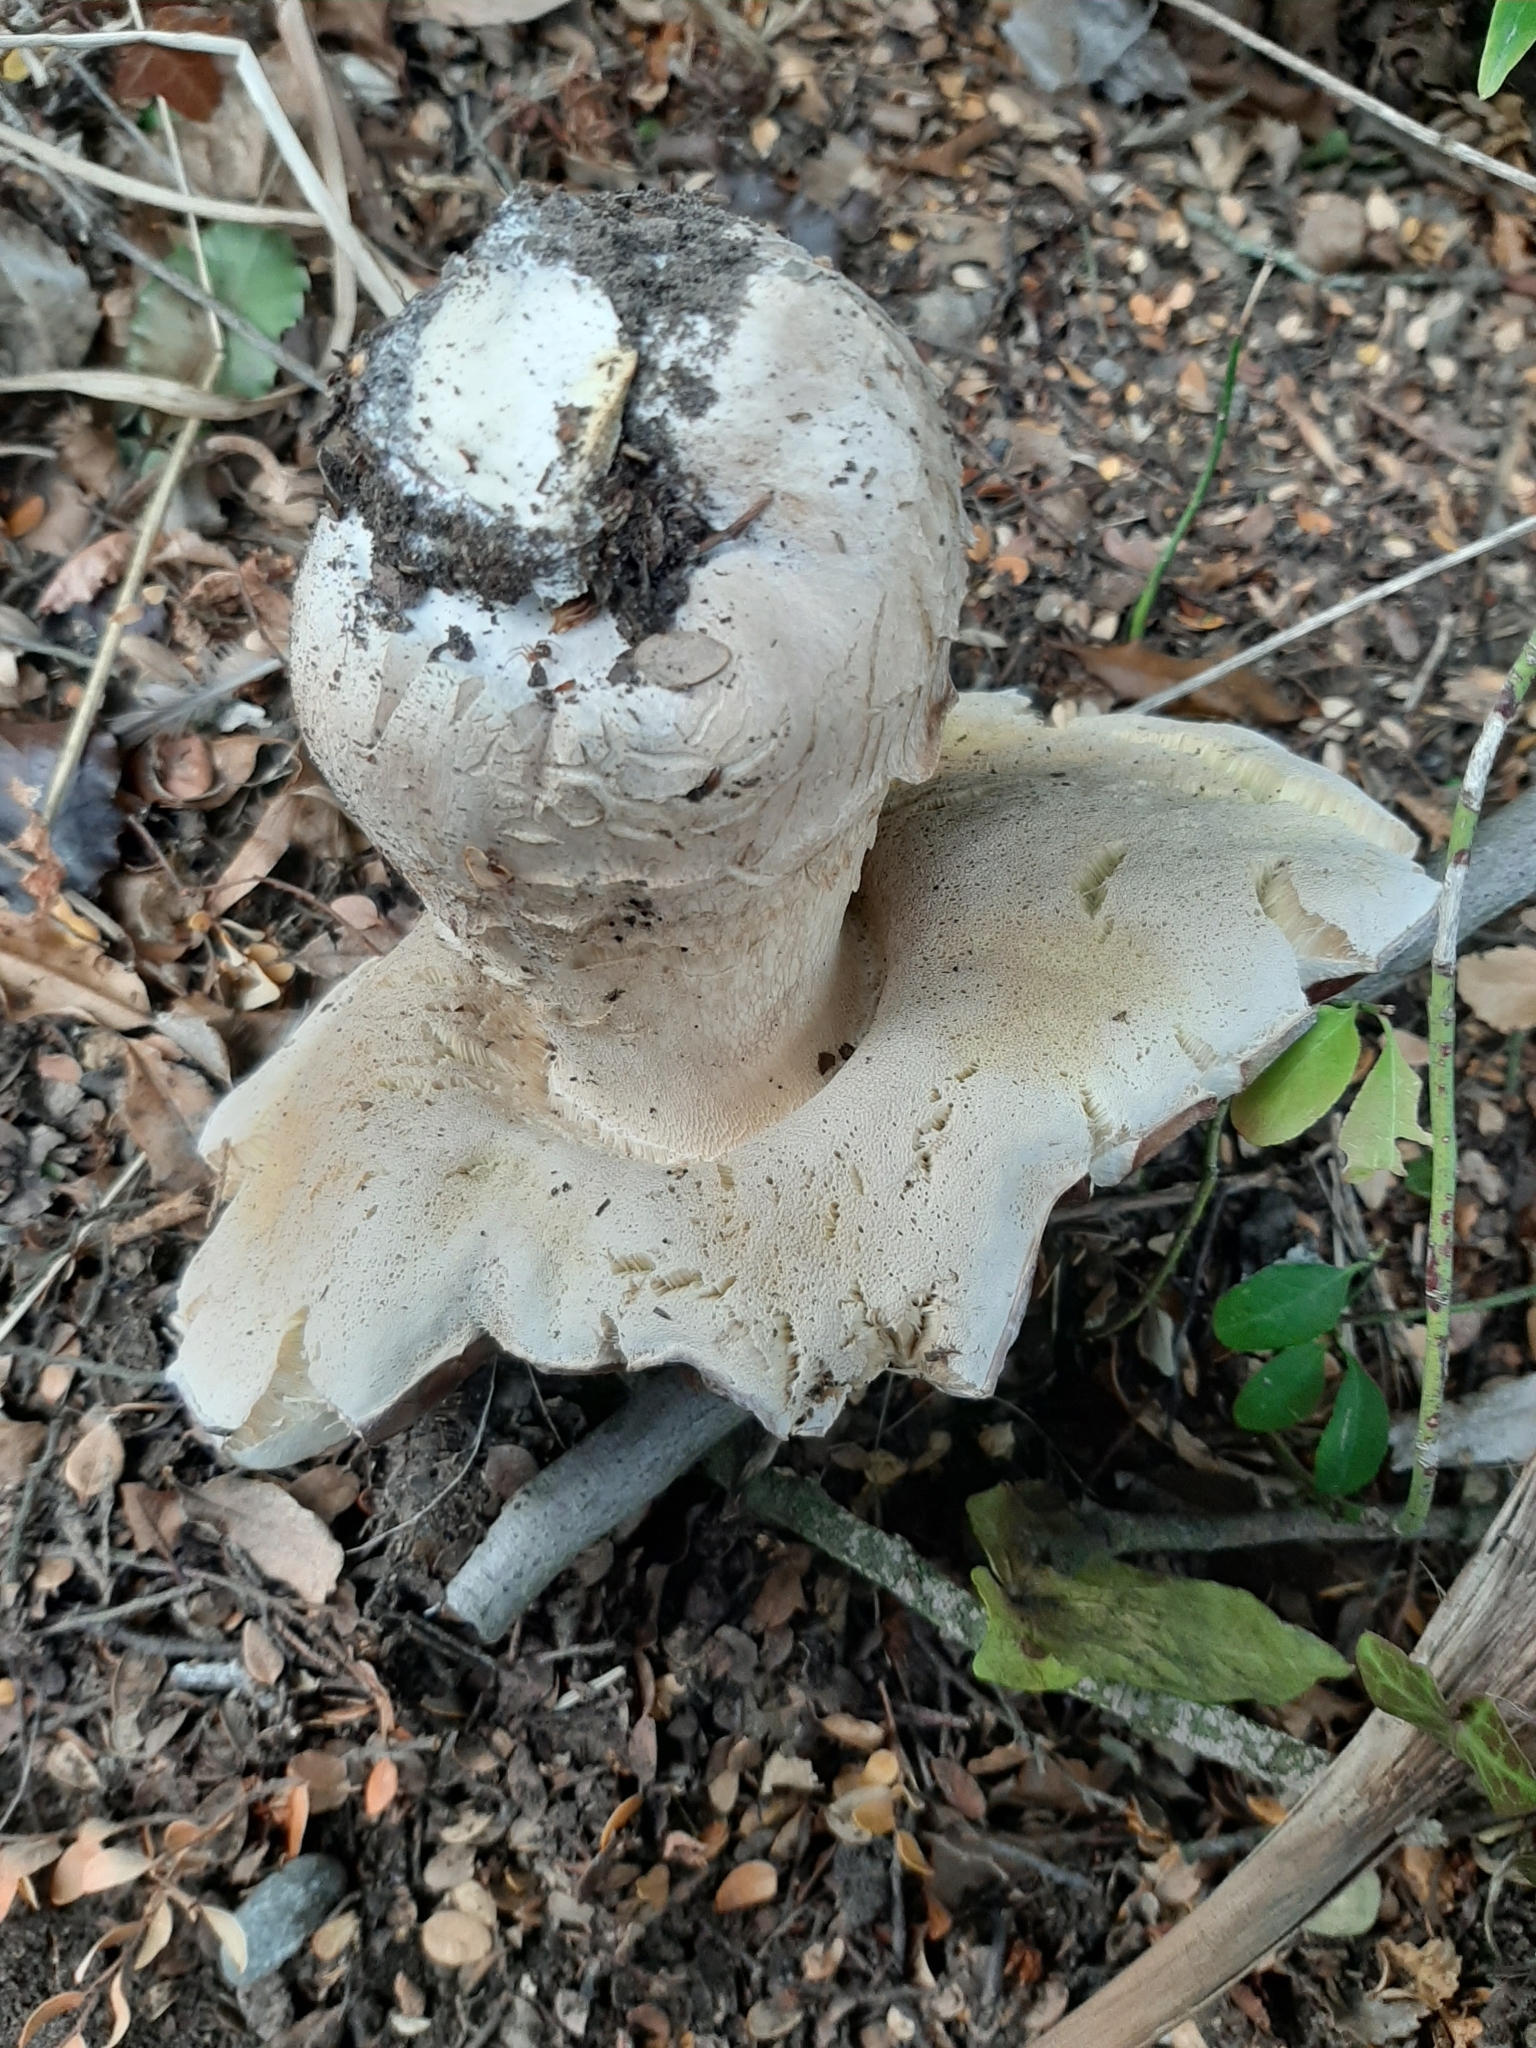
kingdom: Fungi
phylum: Basidiomycota
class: Agaricomycetes
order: Boletales
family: Boletaceae
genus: Boletus
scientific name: Boletus edulis
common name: Cep
